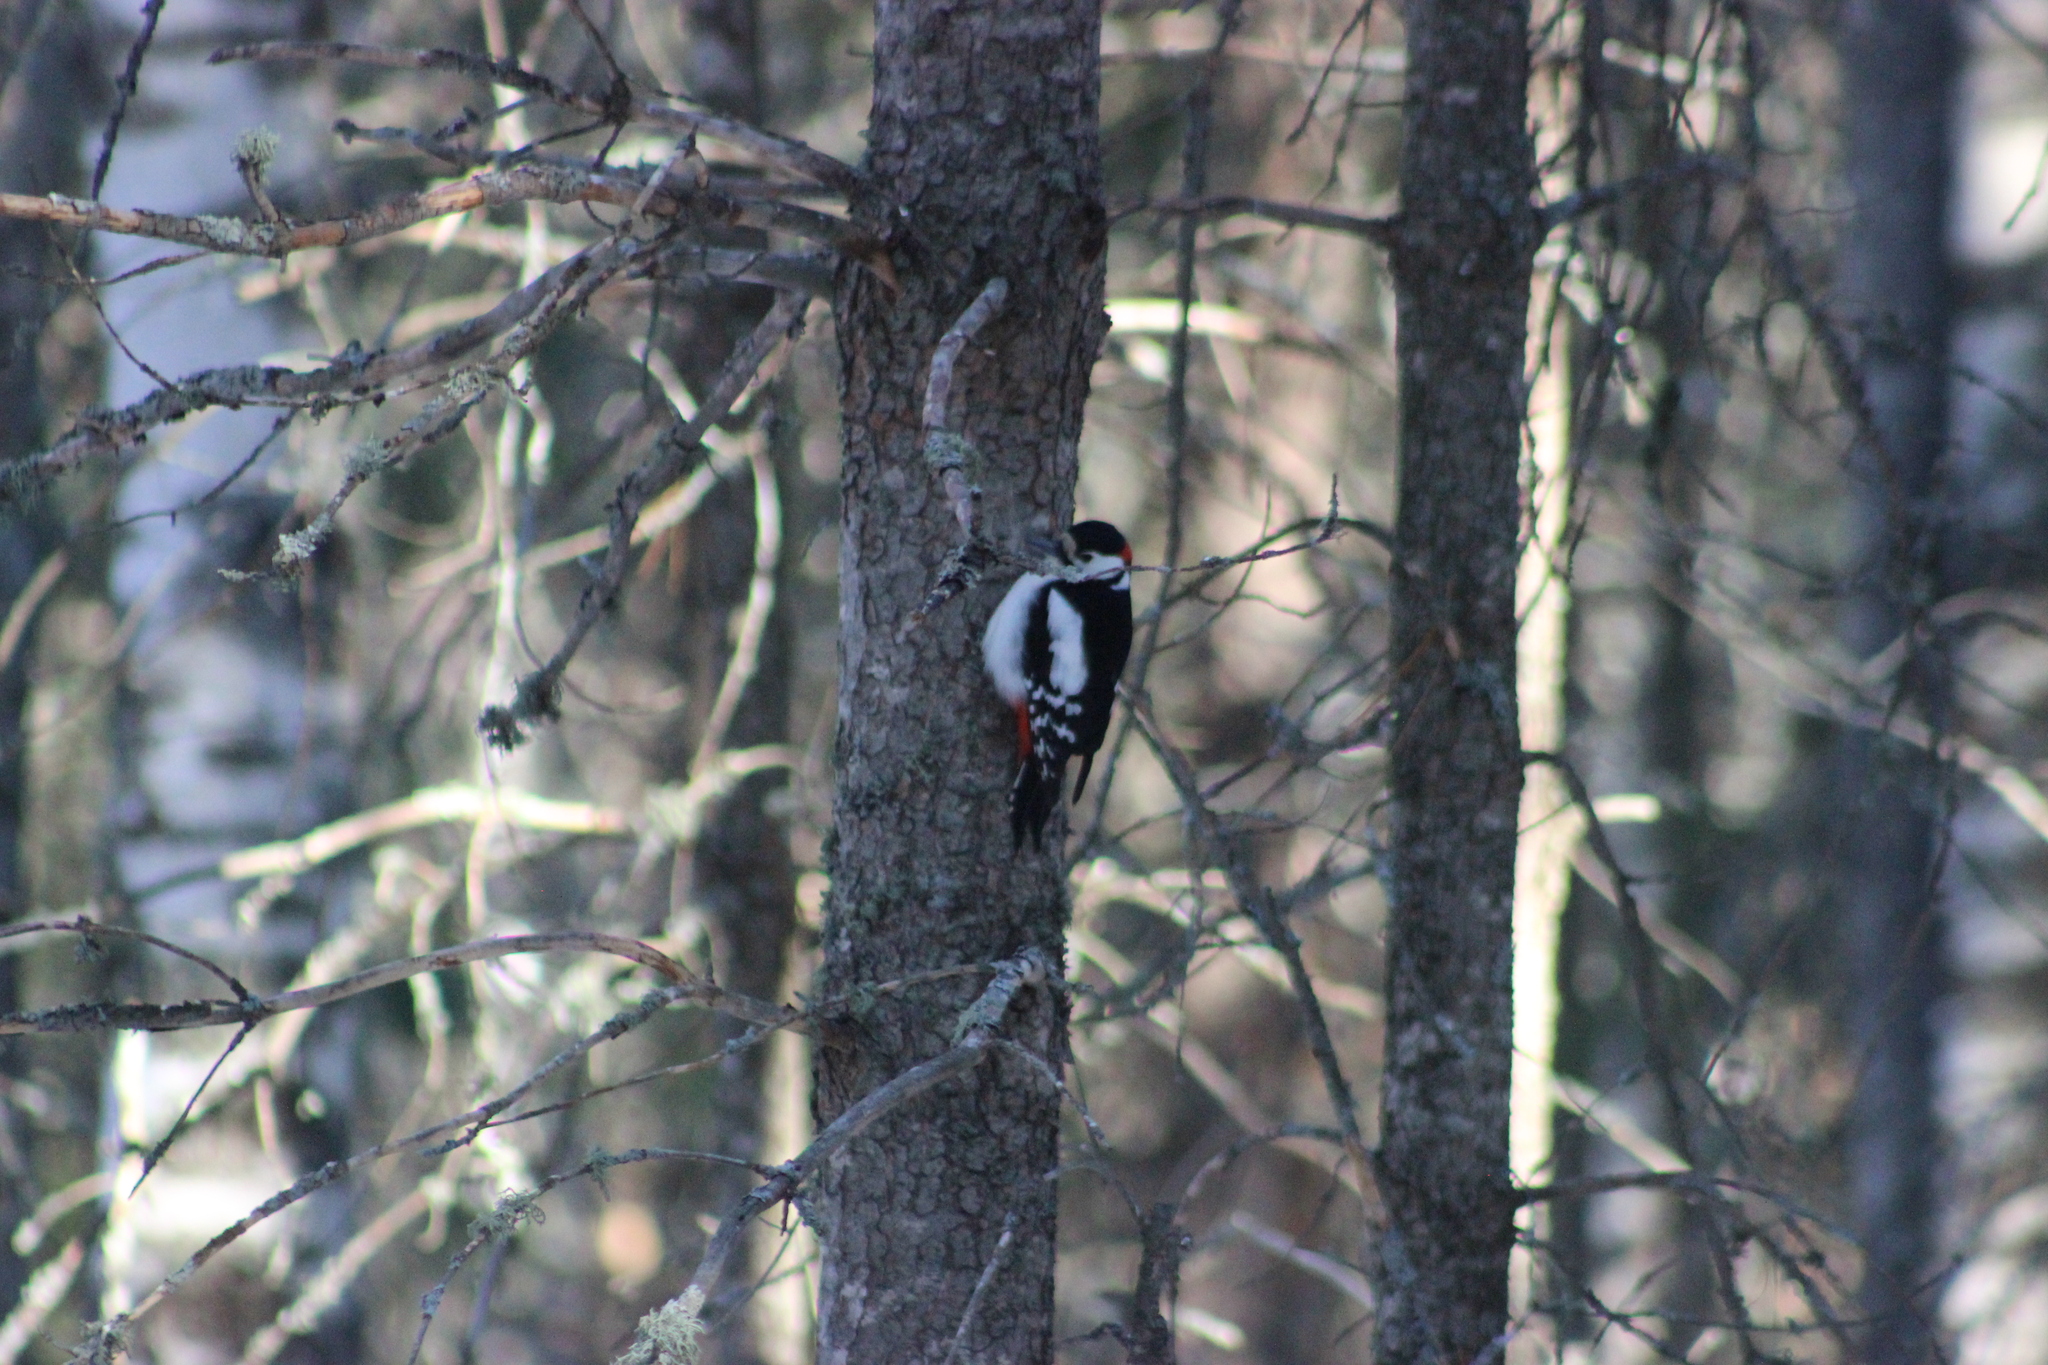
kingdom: Animalia
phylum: Chordata
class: Aves
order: Piciformes
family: Picidae
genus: Dendrocopos
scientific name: Dendrocopos major
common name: Great spotted woodpecker
